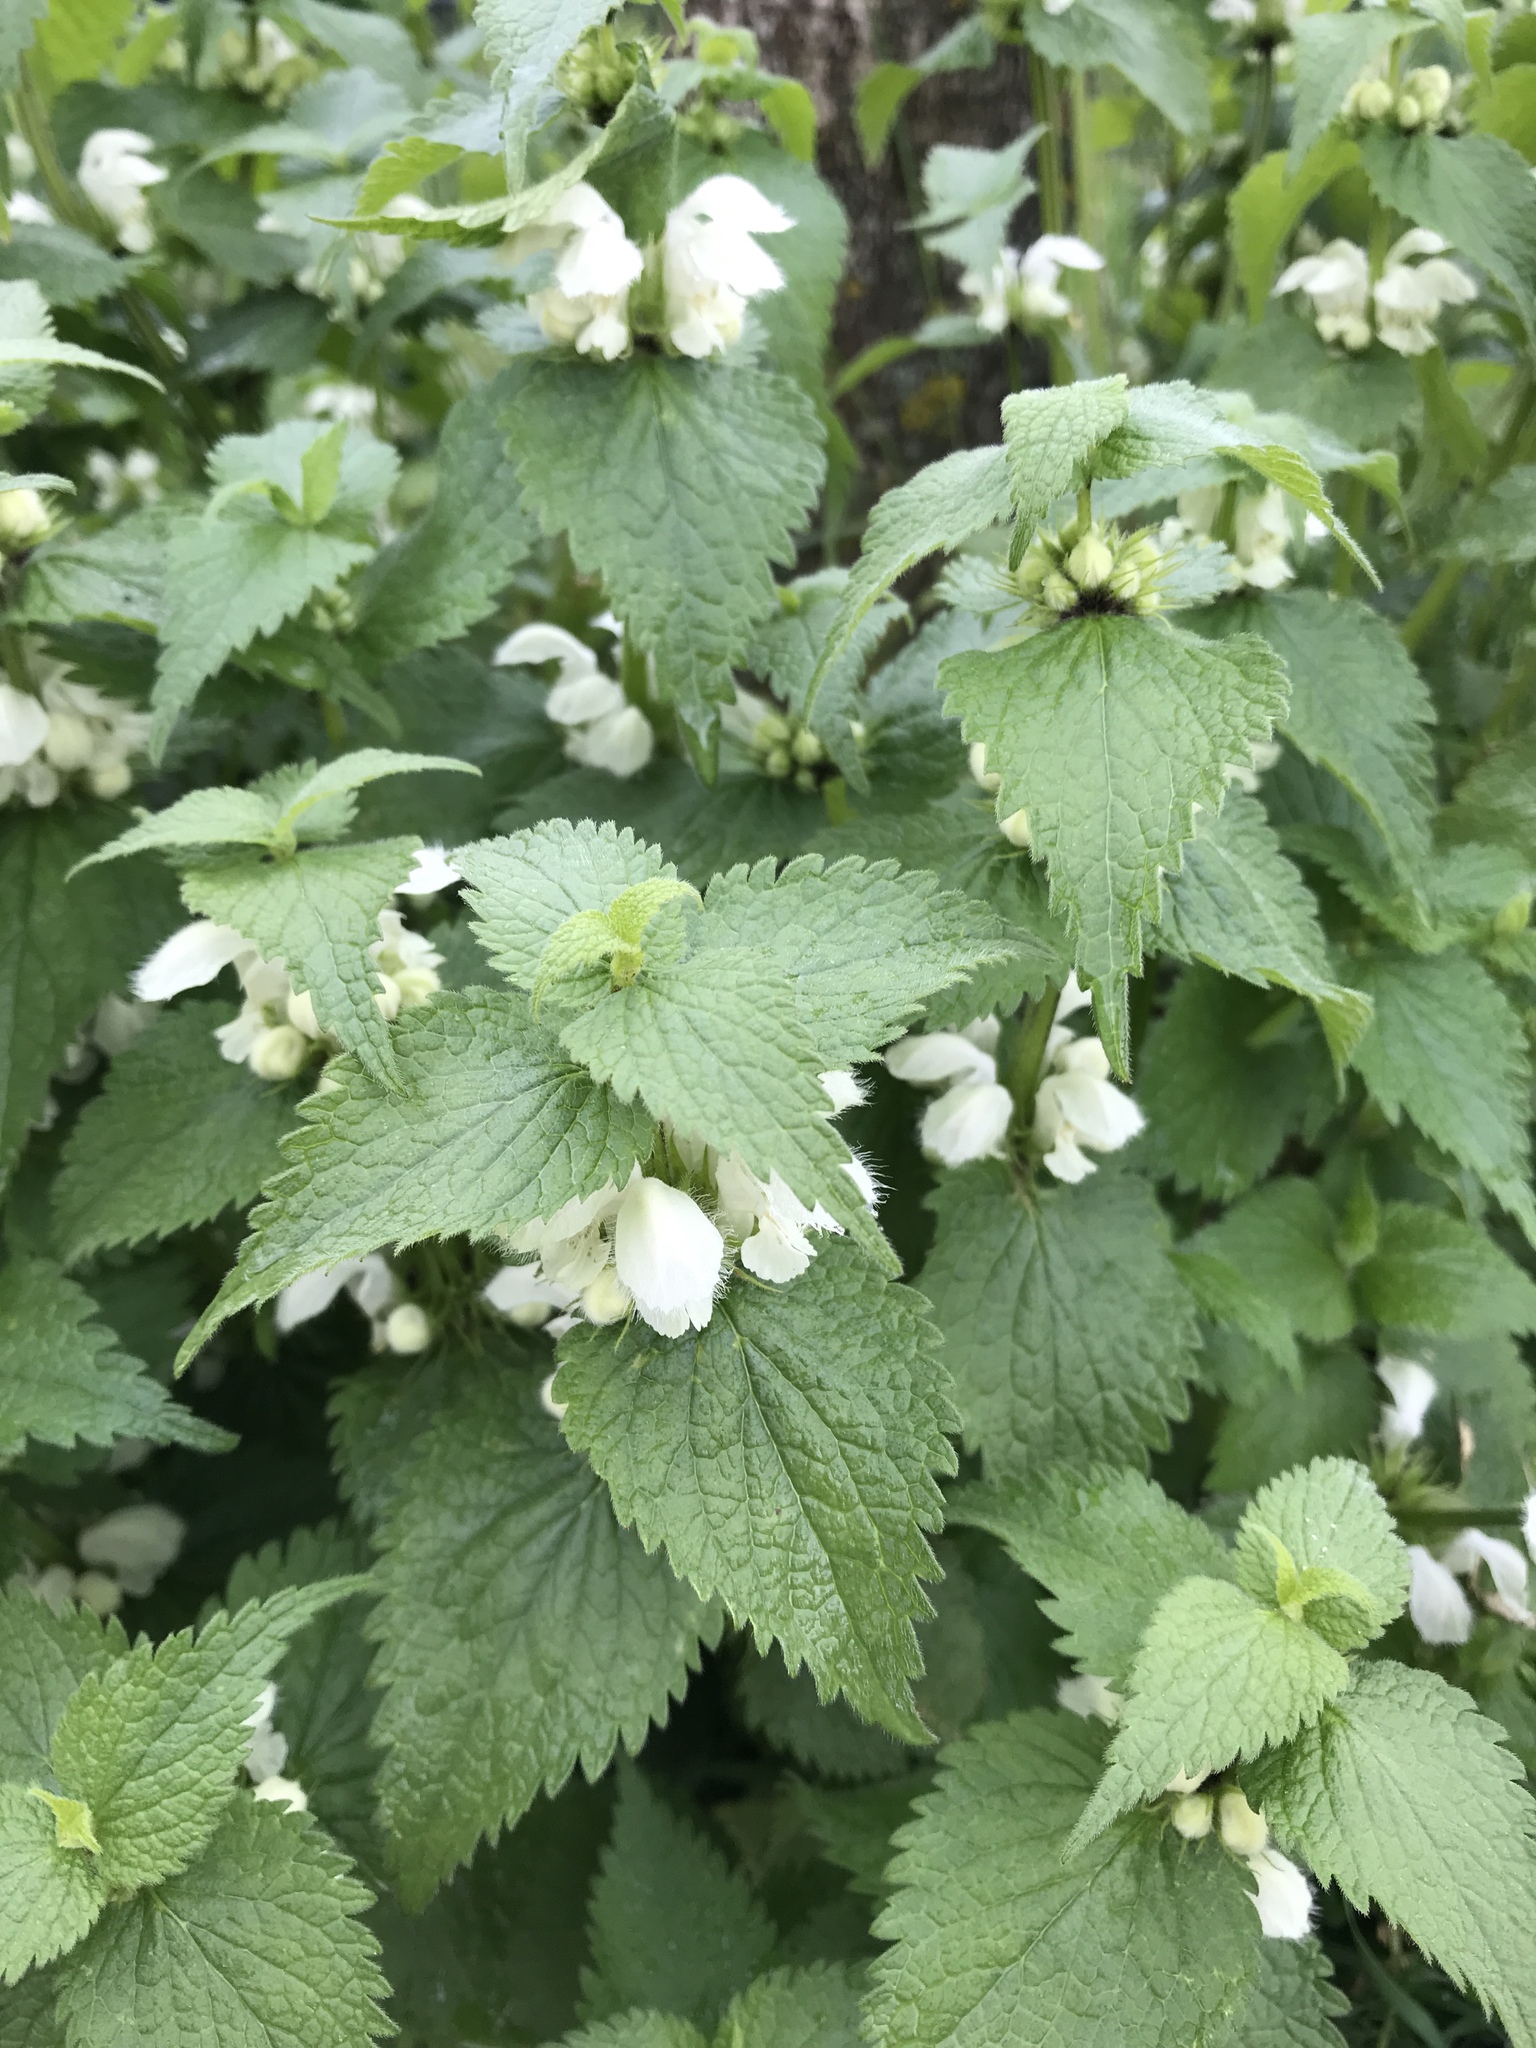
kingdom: Plantae
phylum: Tracheophyta
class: Magnoliopsida
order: Lamiales
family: Lamiaceae
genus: Lamium
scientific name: Lamium album
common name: White dead-nettle
